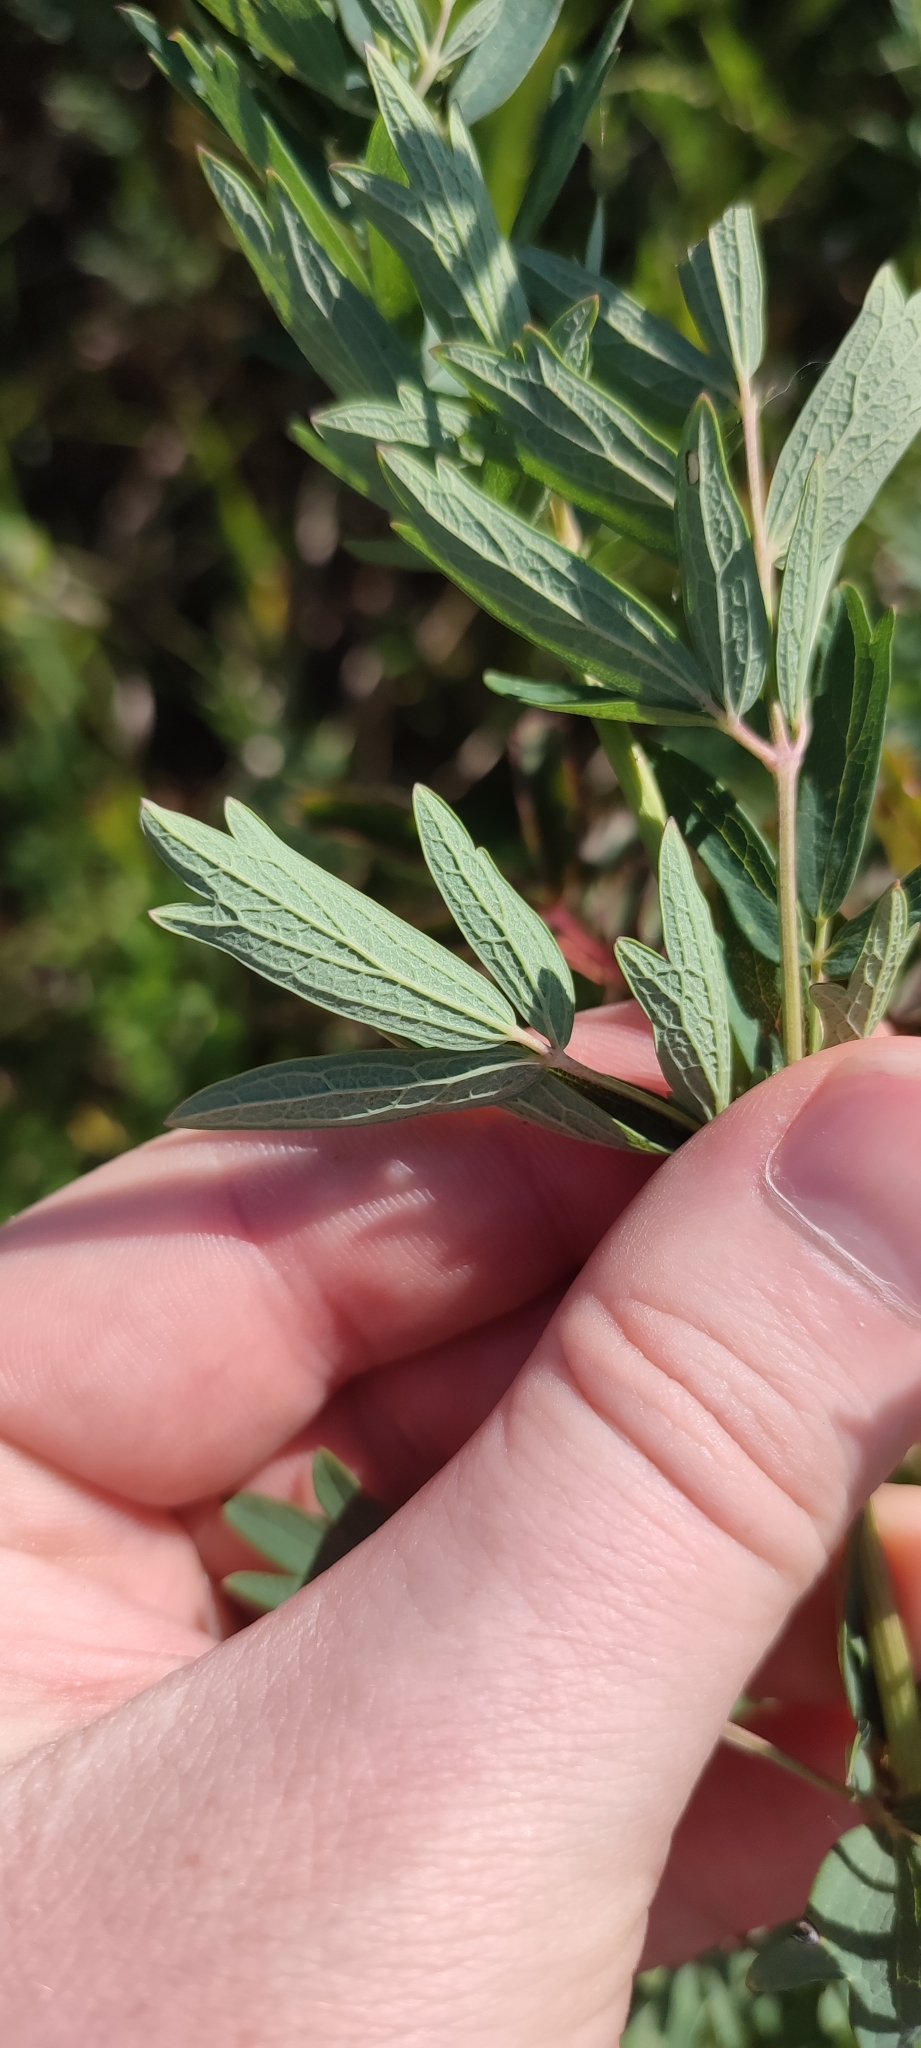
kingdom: Plantae
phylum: Tracheophyta
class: Magnoliopsida
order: Ranunculales
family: Ranunculaceae
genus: Thalictrum
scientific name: Thalictrum flavum
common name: Common meadow-rue
